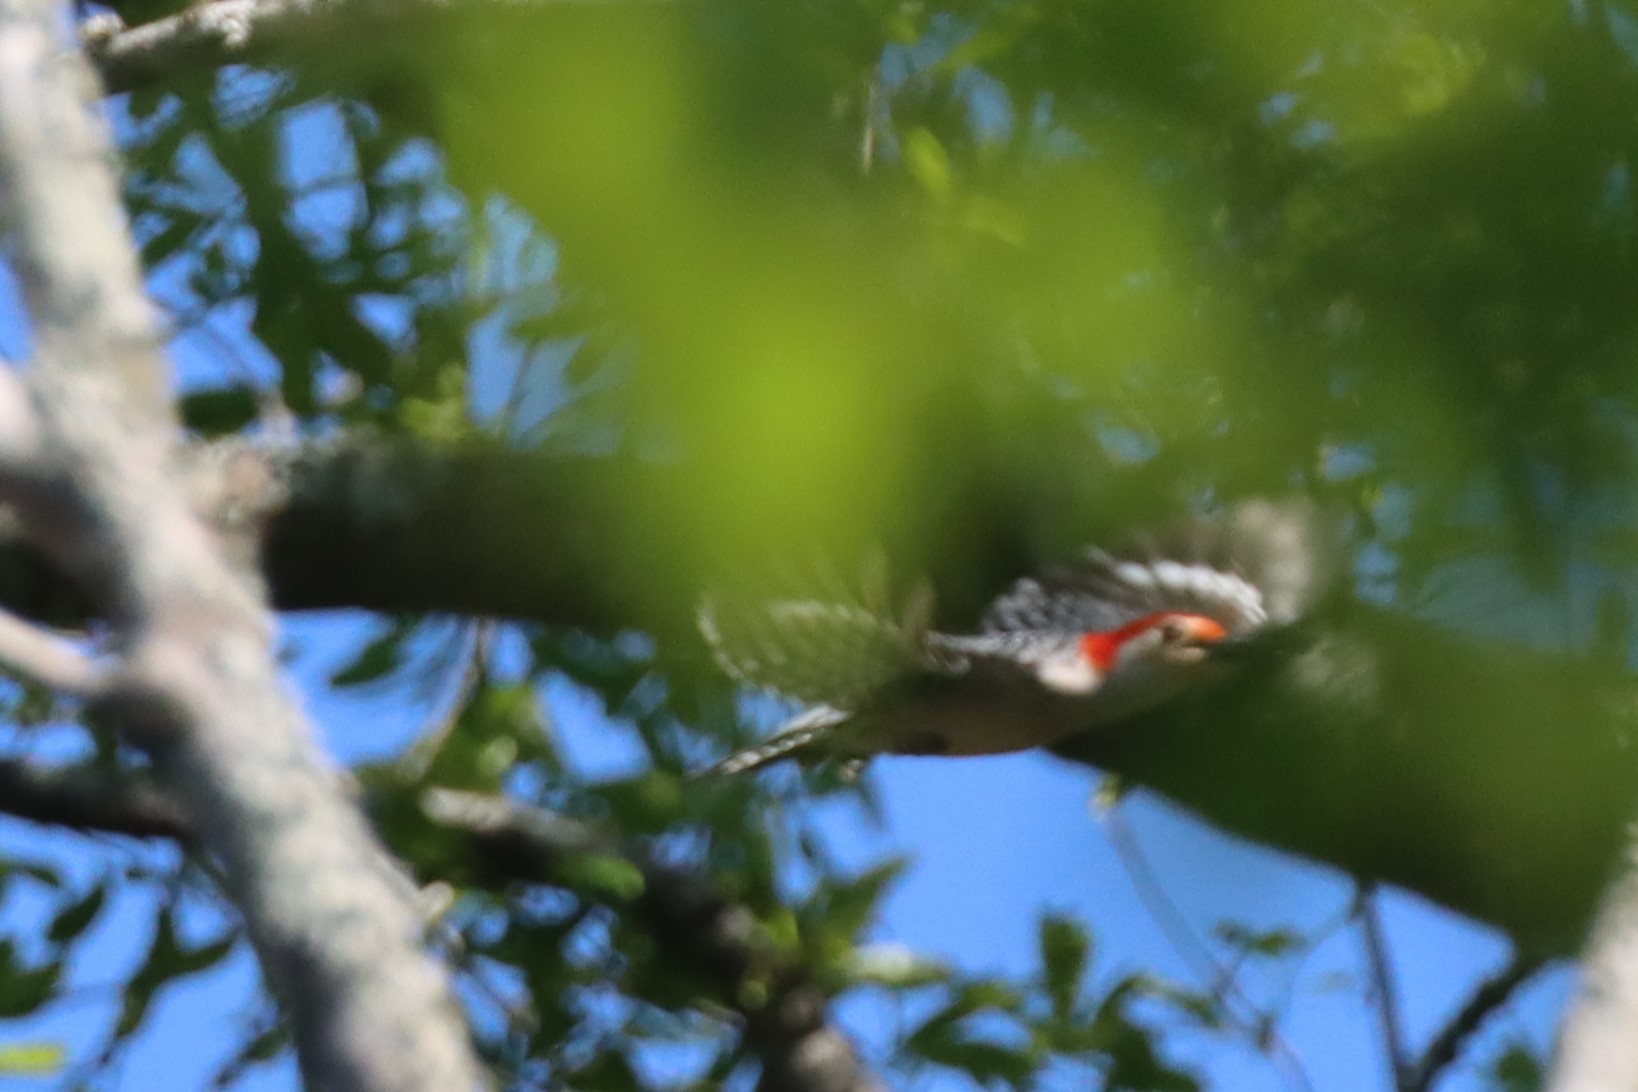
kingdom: Animalia
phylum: Chordata
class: Aves
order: Piciformes
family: Picidae
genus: Melanerpes
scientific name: Melanerpes carolinus
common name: Red-bellied woodpecker
